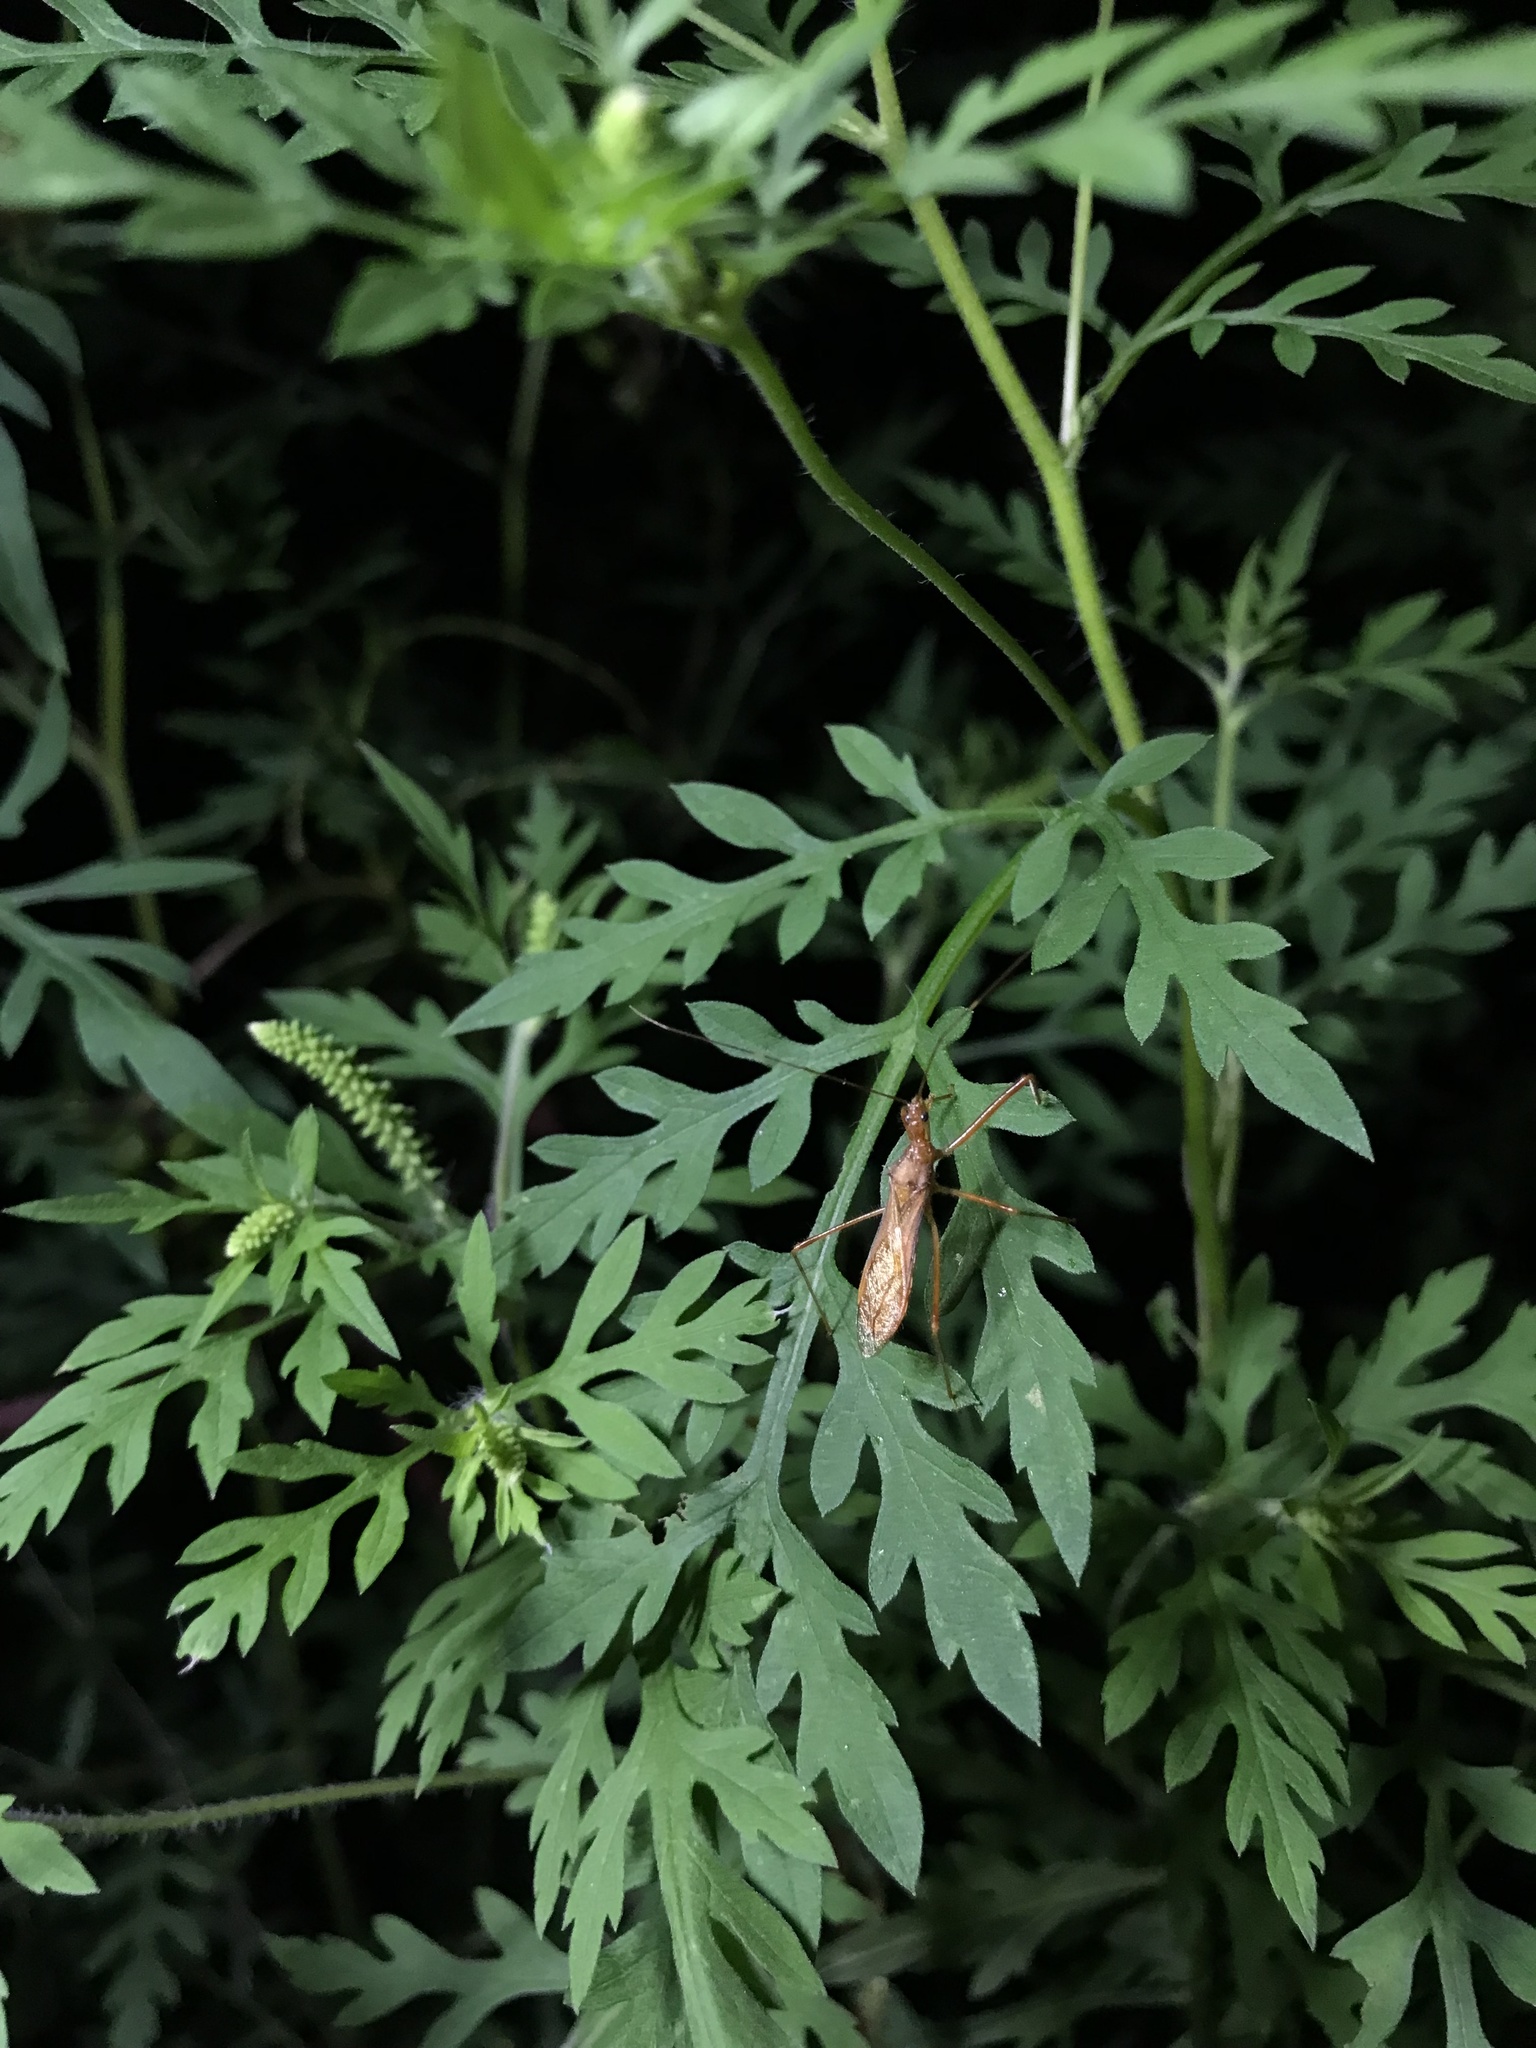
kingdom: Animalia
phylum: Arthropoda
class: Insecta
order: Hemiptera
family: Reduviidae
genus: Rocconota
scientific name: Rocconota annulicornis
